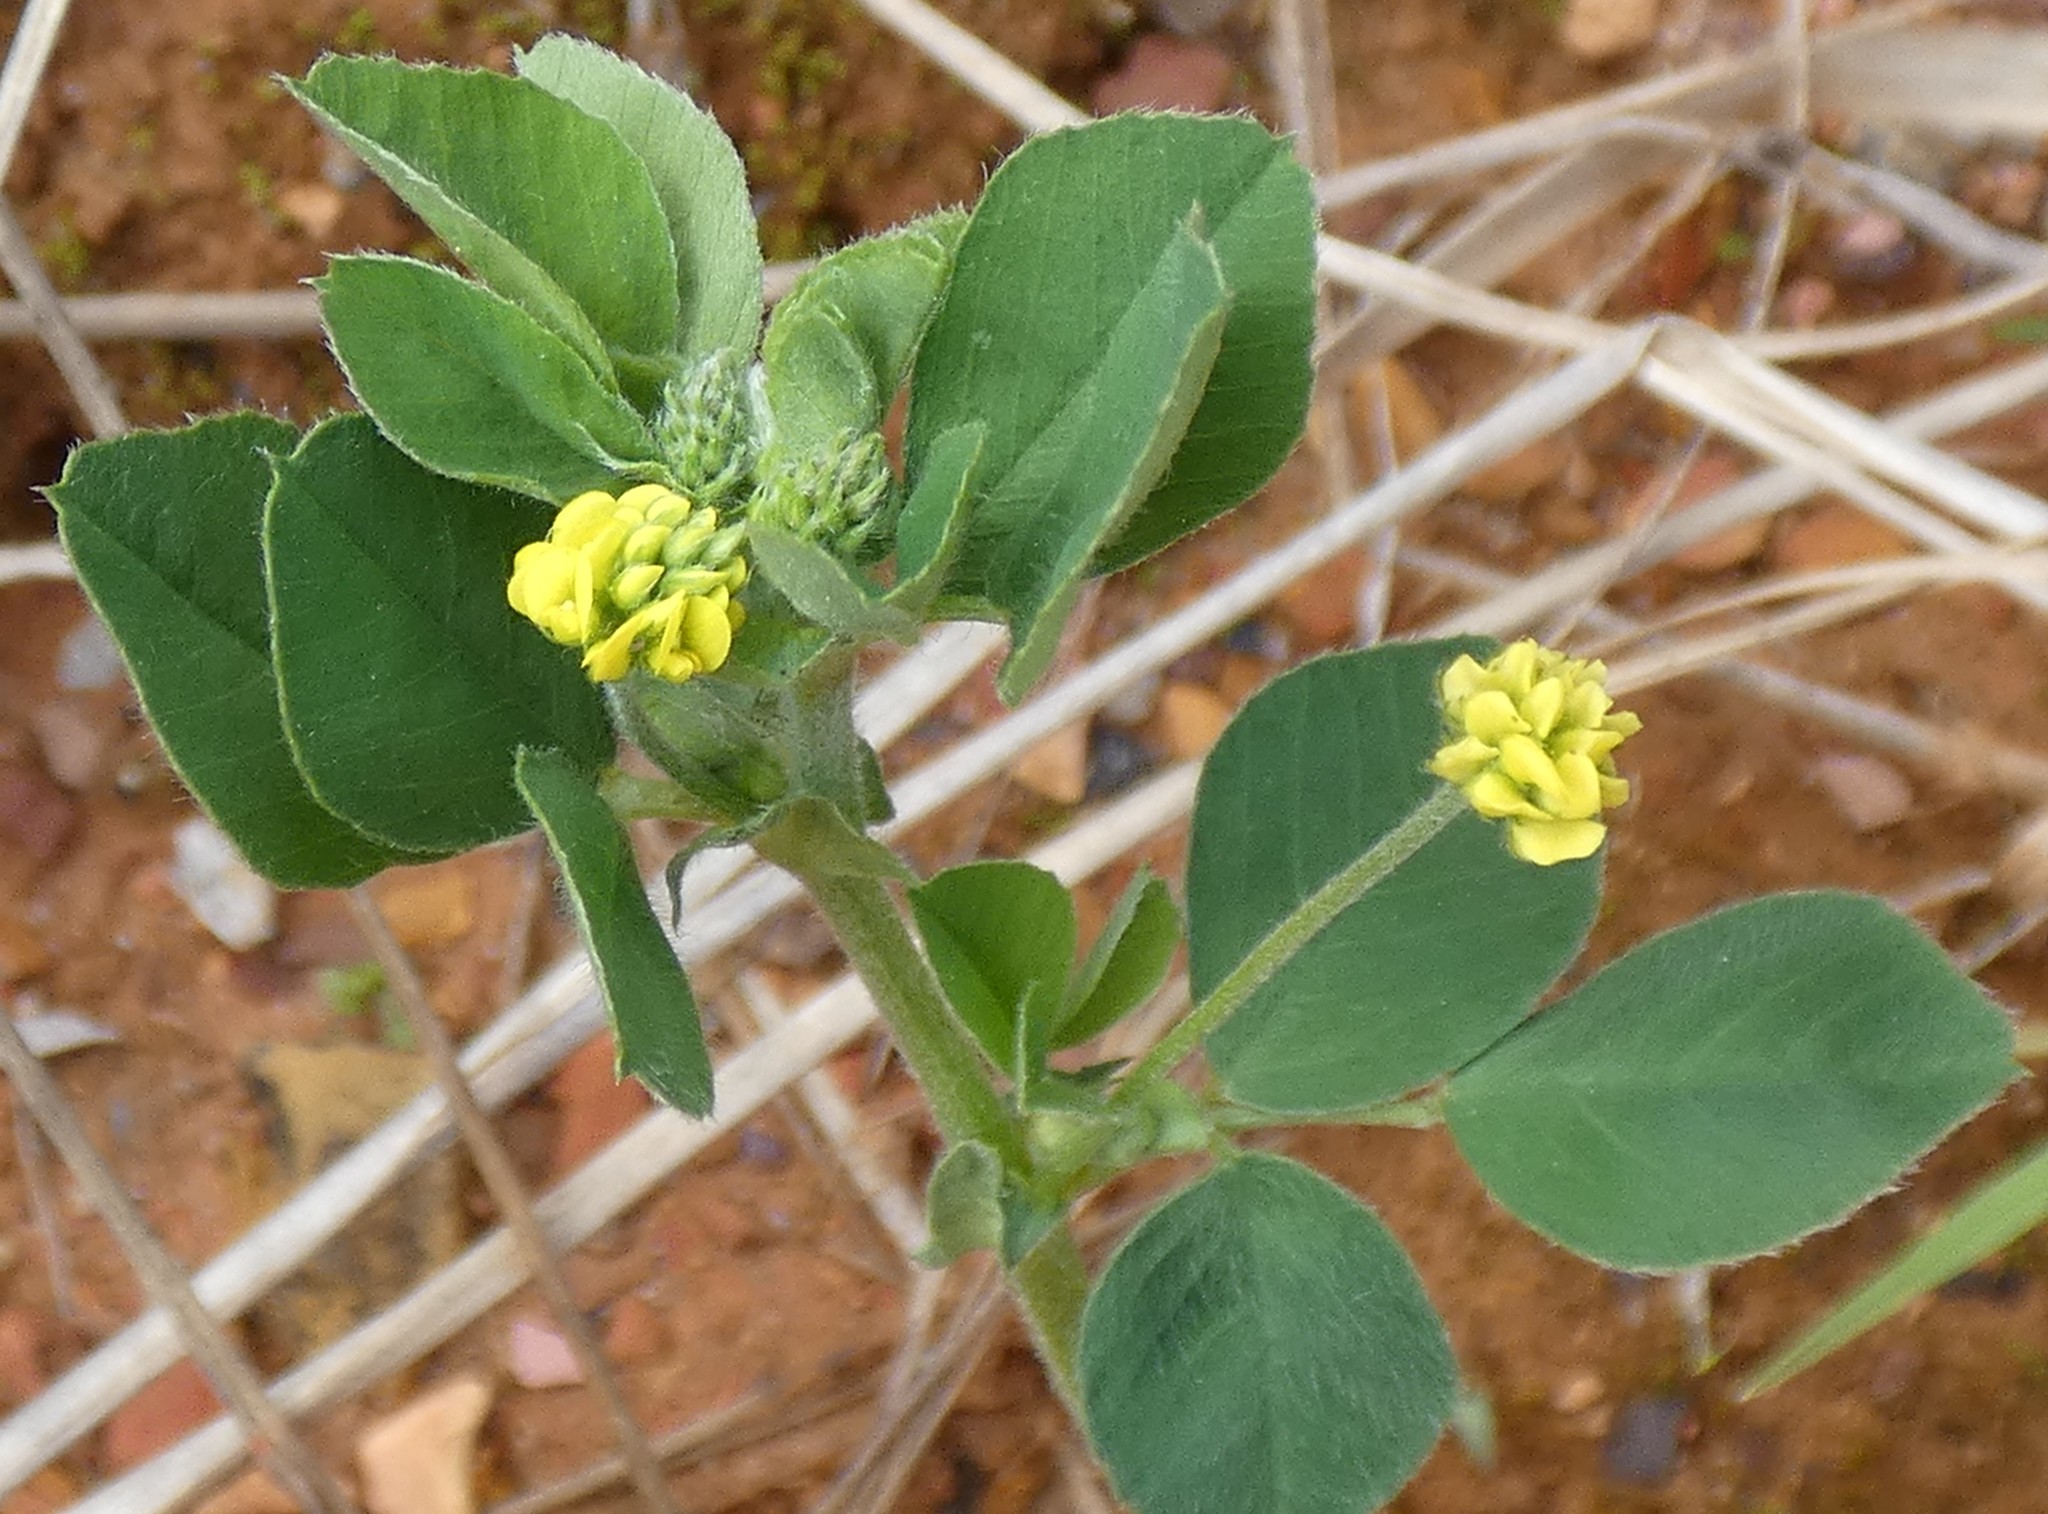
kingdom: Plantae
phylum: Tracheophyta
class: Magnoliopsida
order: Fabales
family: Fabaceae
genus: Medicago
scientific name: Medicago lupulina
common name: Black medick
